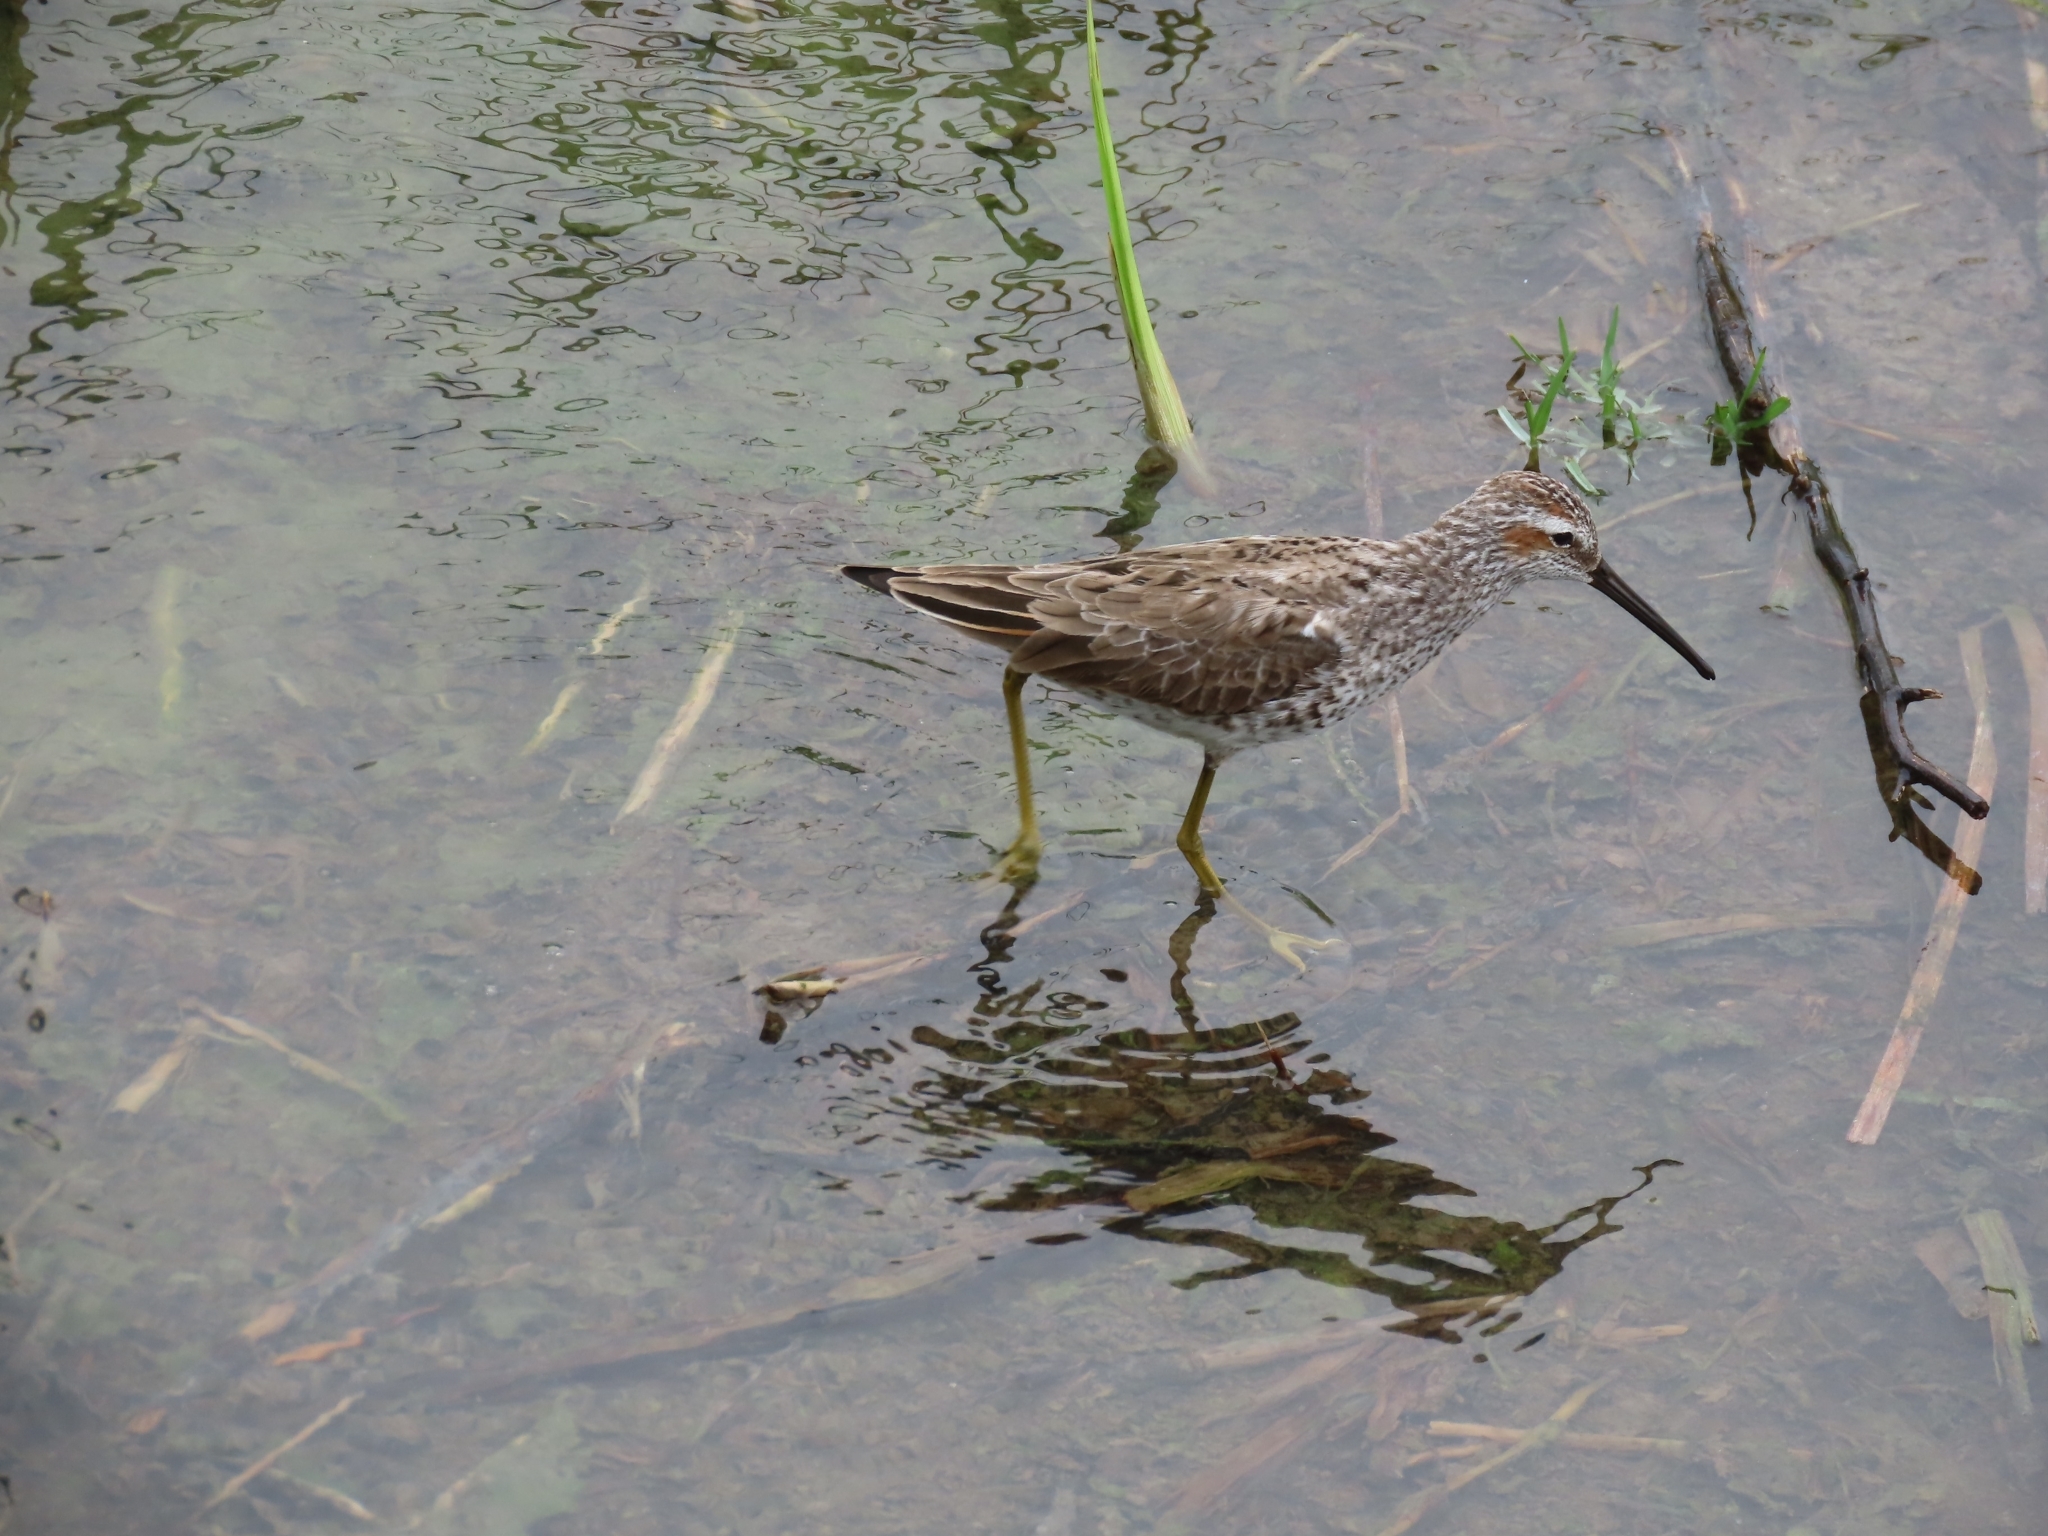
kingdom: Animalia
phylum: Chordata
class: Aves
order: Charadriiformes
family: Scolopacidae
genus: Calidris
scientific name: Calidris himantopus
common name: Stilt sandpiper
